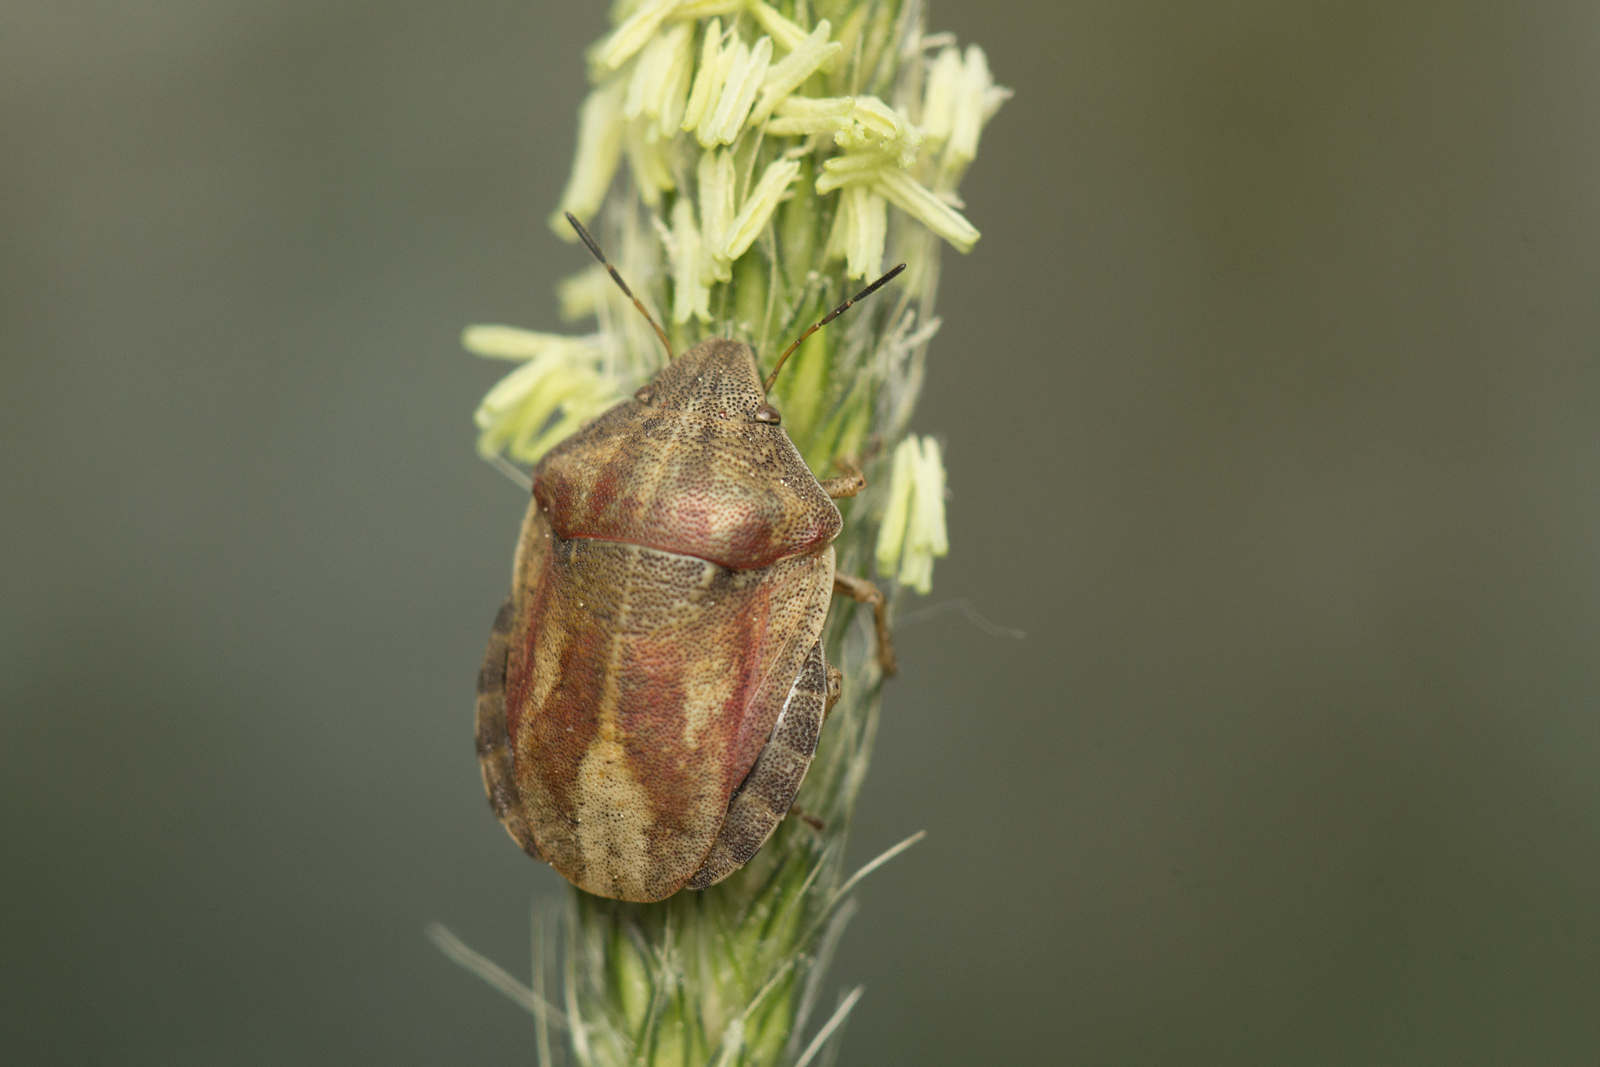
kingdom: Animalia
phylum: Arthropoda
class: Insecta
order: Hemiptera
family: Scutelleridae
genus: Eurygaster
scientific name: Eurygaster testudinaria
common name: Tortoise bug
